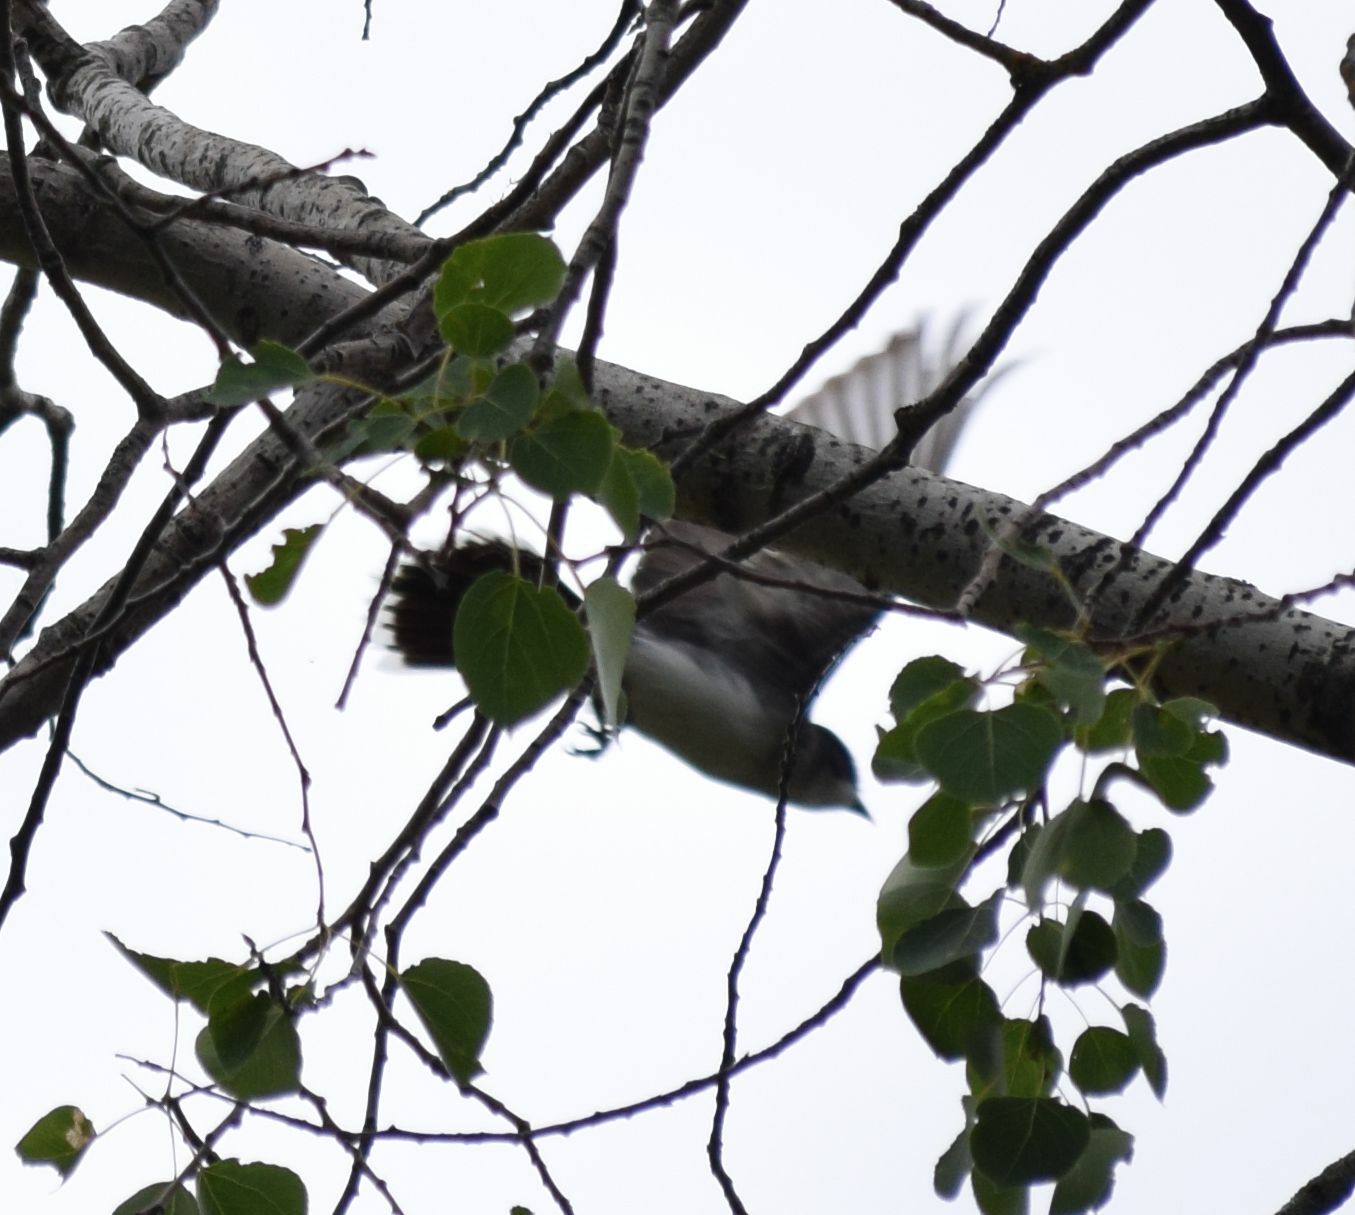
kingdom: Animalia
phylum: Chordata
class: Aves
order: Passeriformes
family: Tyrannidae
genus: Tyrannus
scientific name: Tyrannus tyrannus
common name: Eastern kingbird
